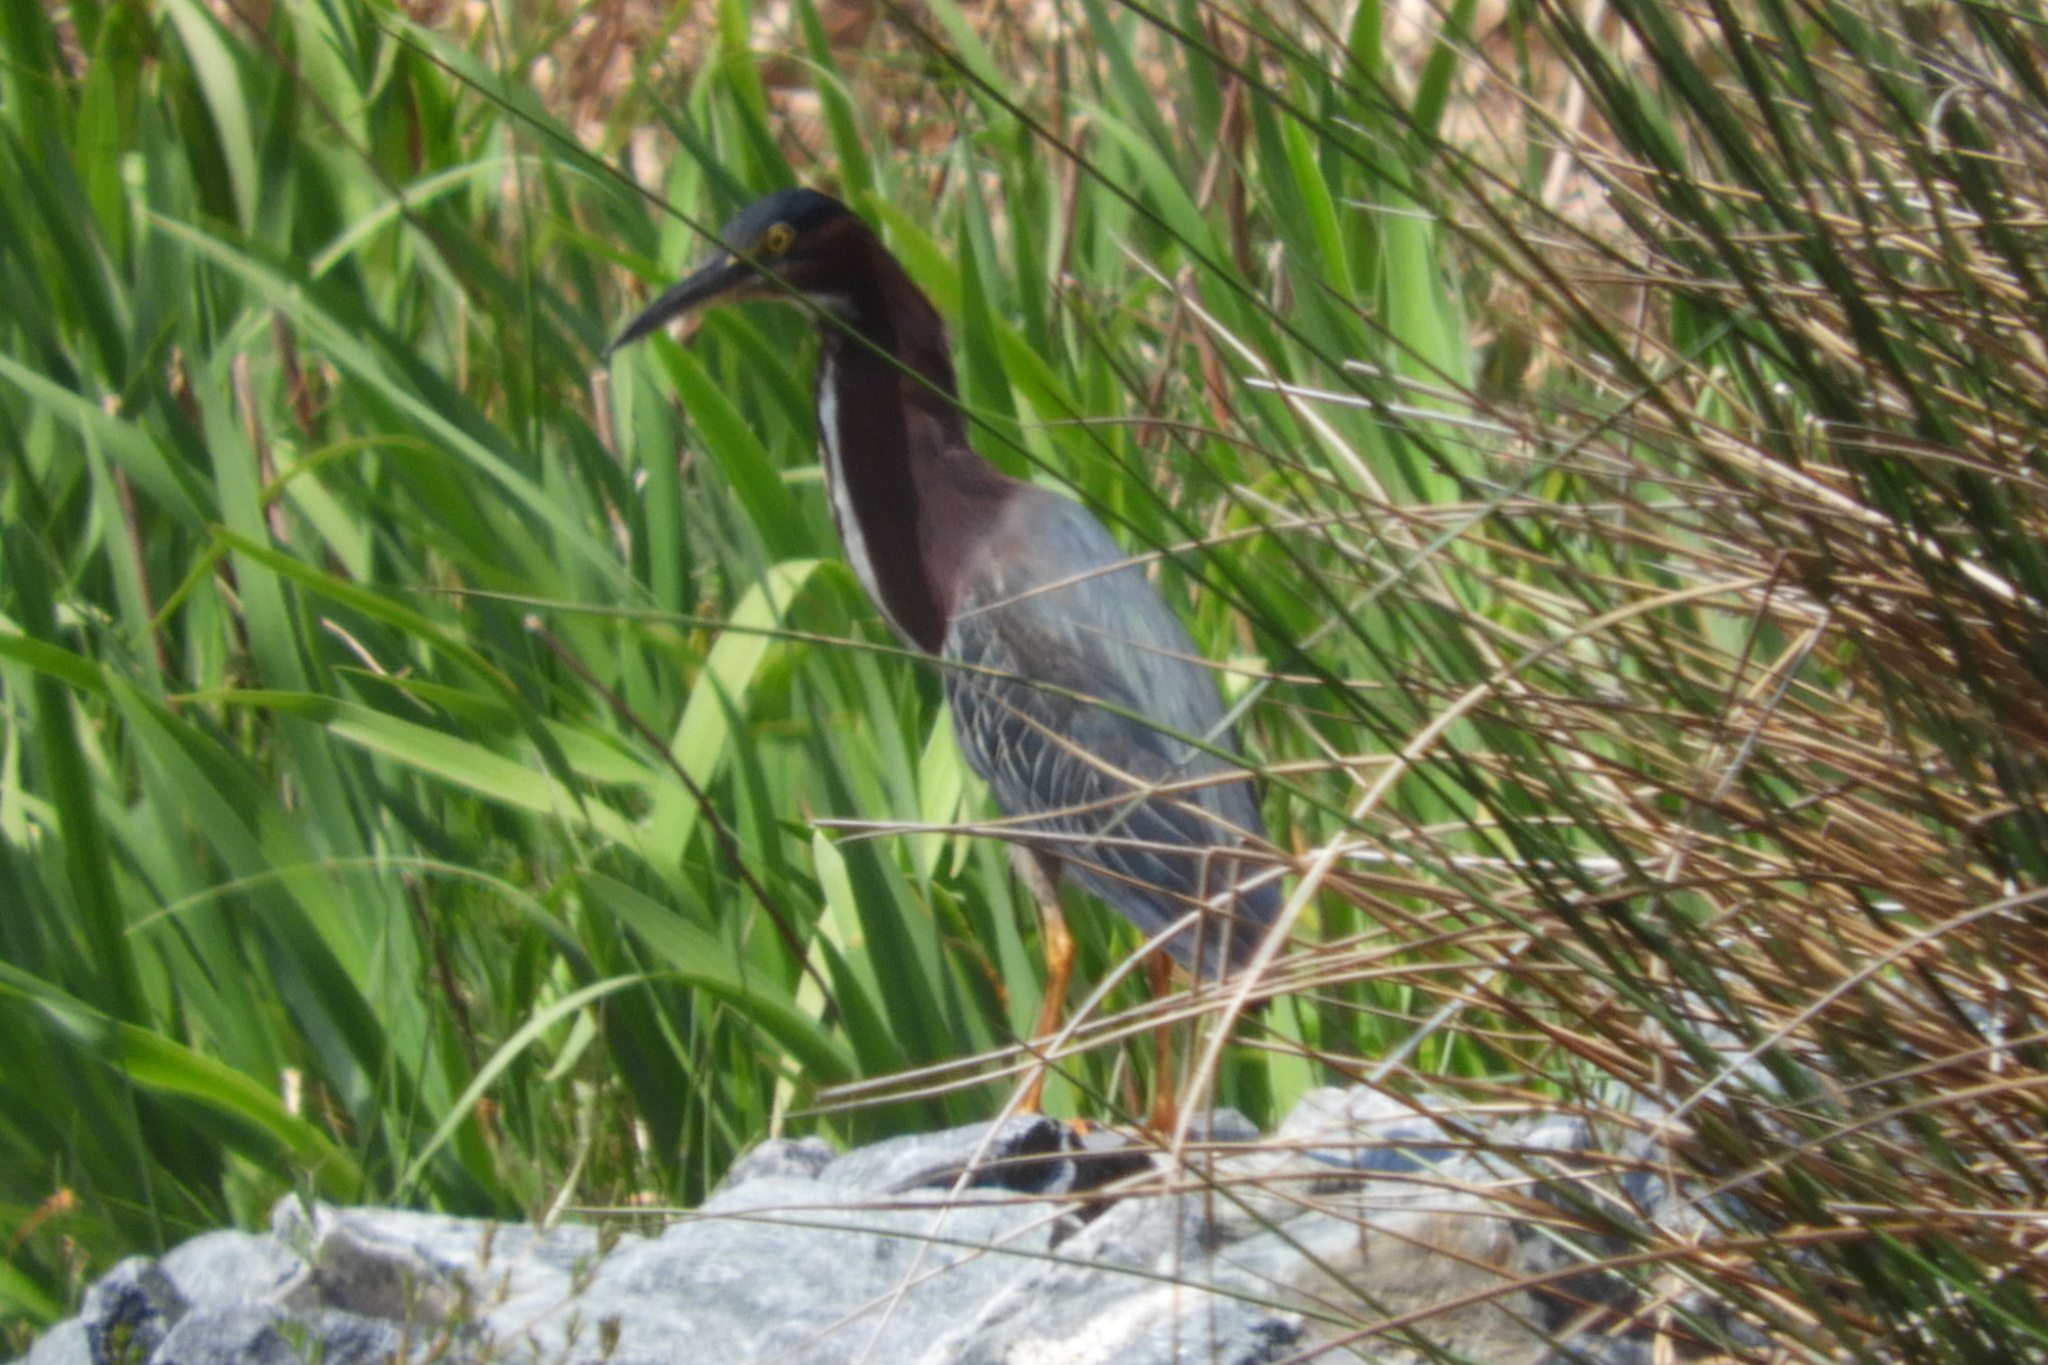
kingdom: Animalia
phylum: Chordata
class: Aves
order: Pelecaniformes
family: Ardeidae
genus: Butorides
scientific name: Butorides virescens
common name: Green heron
